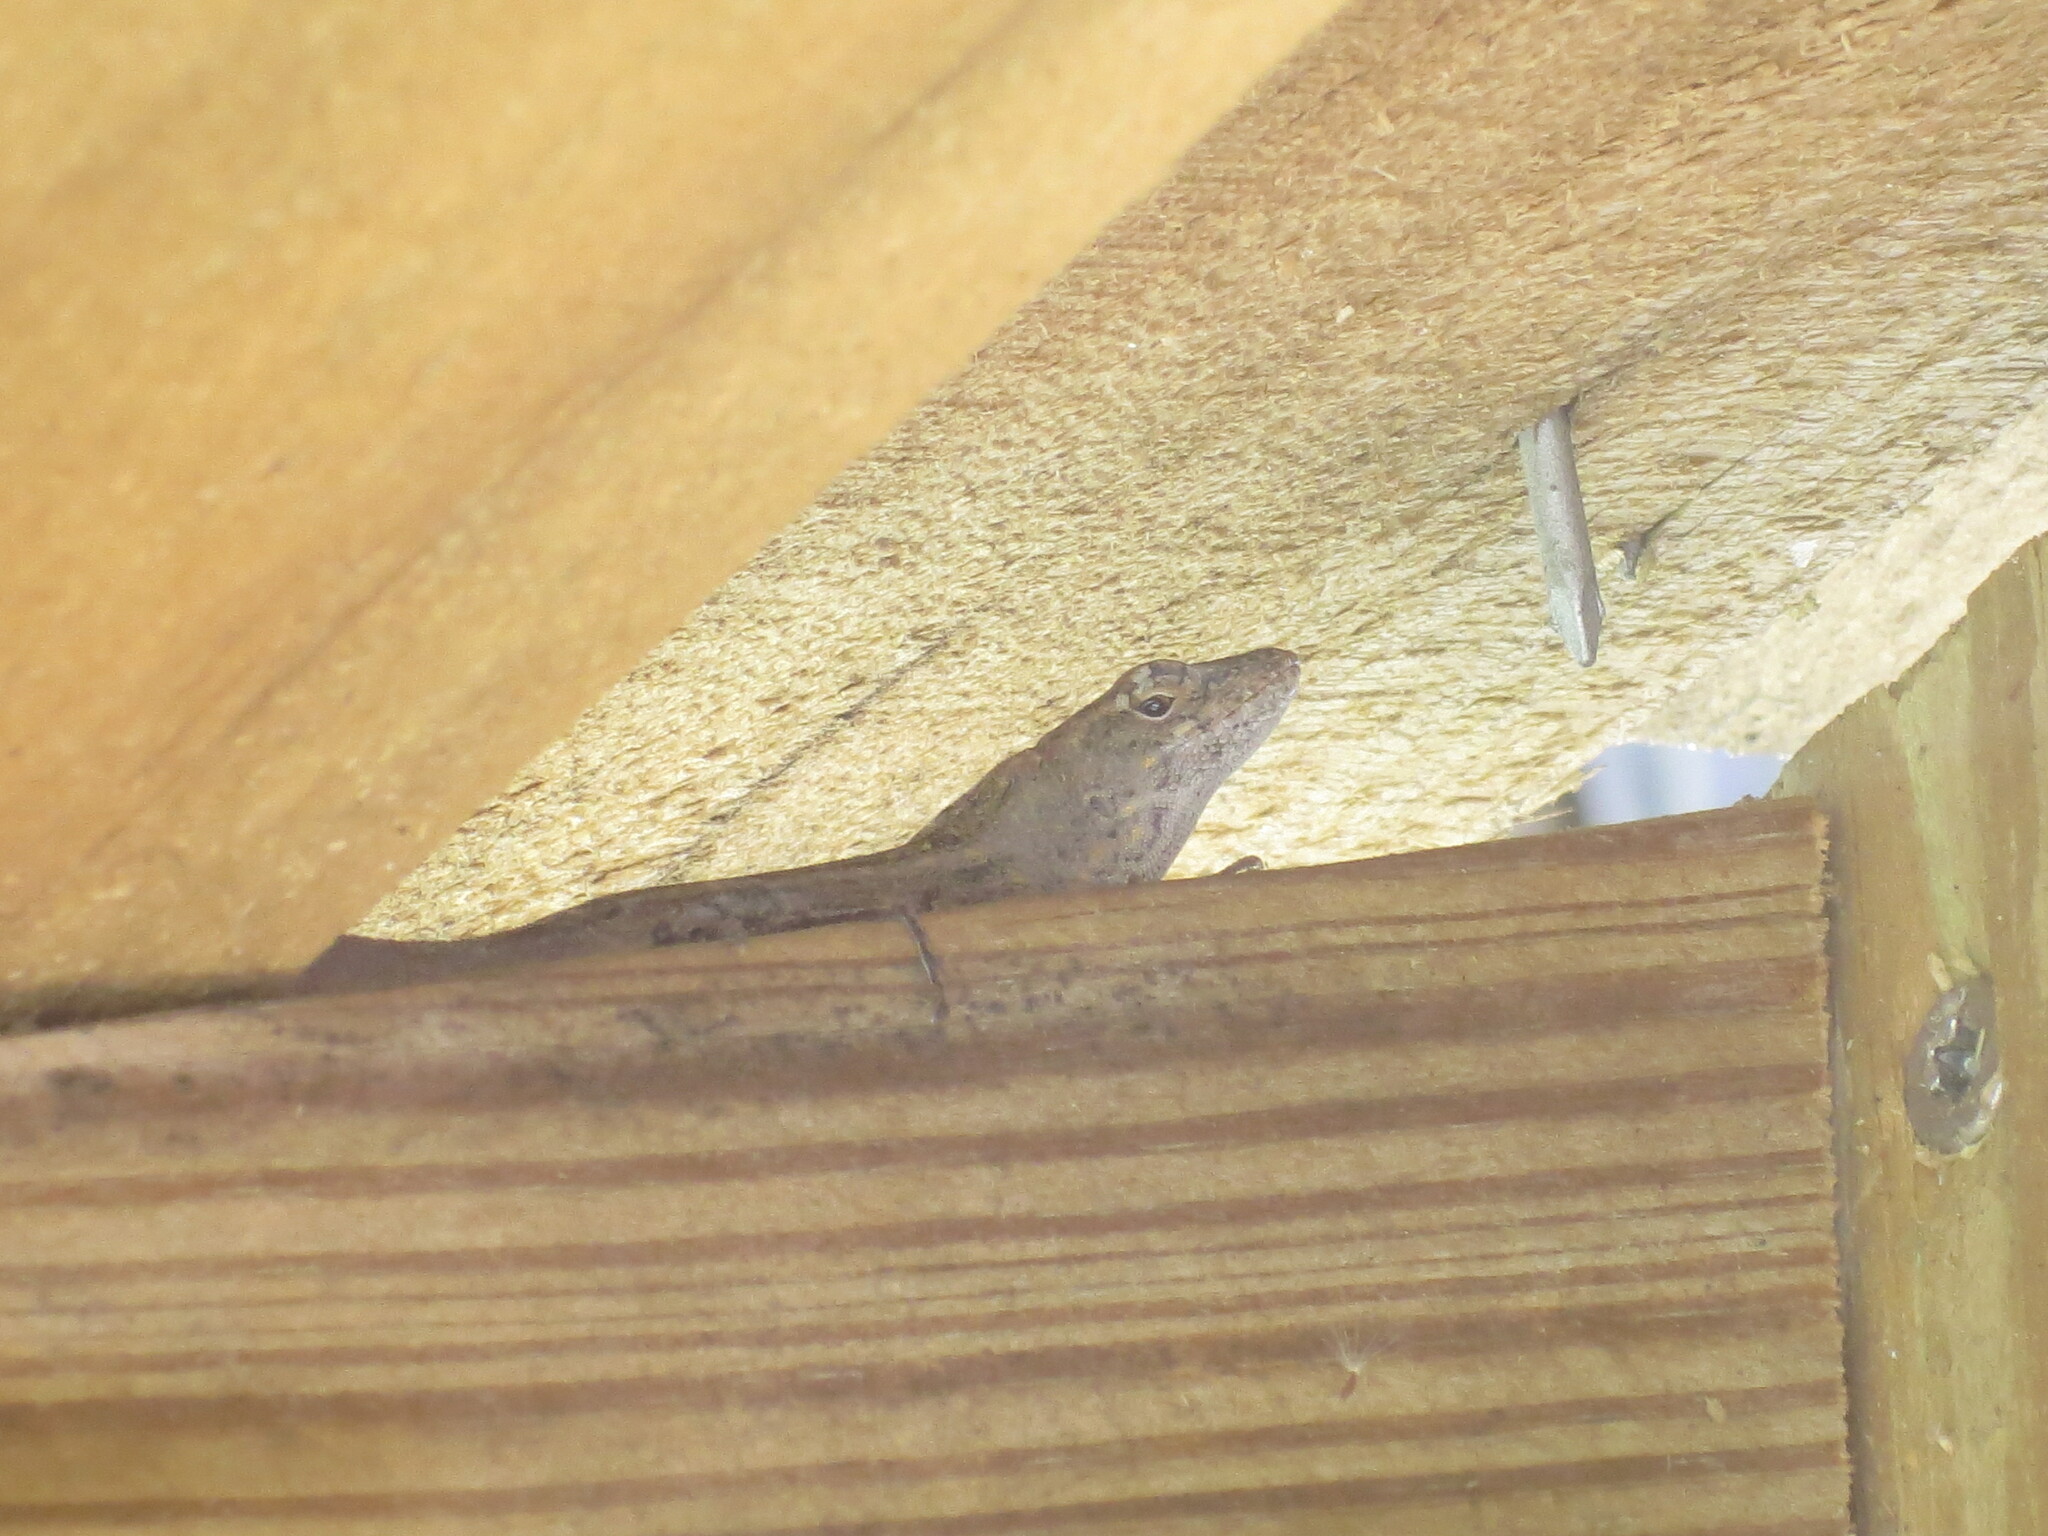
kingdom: Animalia
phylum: Chordata
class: Squamata
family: Dactyloidae
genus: Anolis
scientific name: Anolis sagrei
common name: Brown anole
